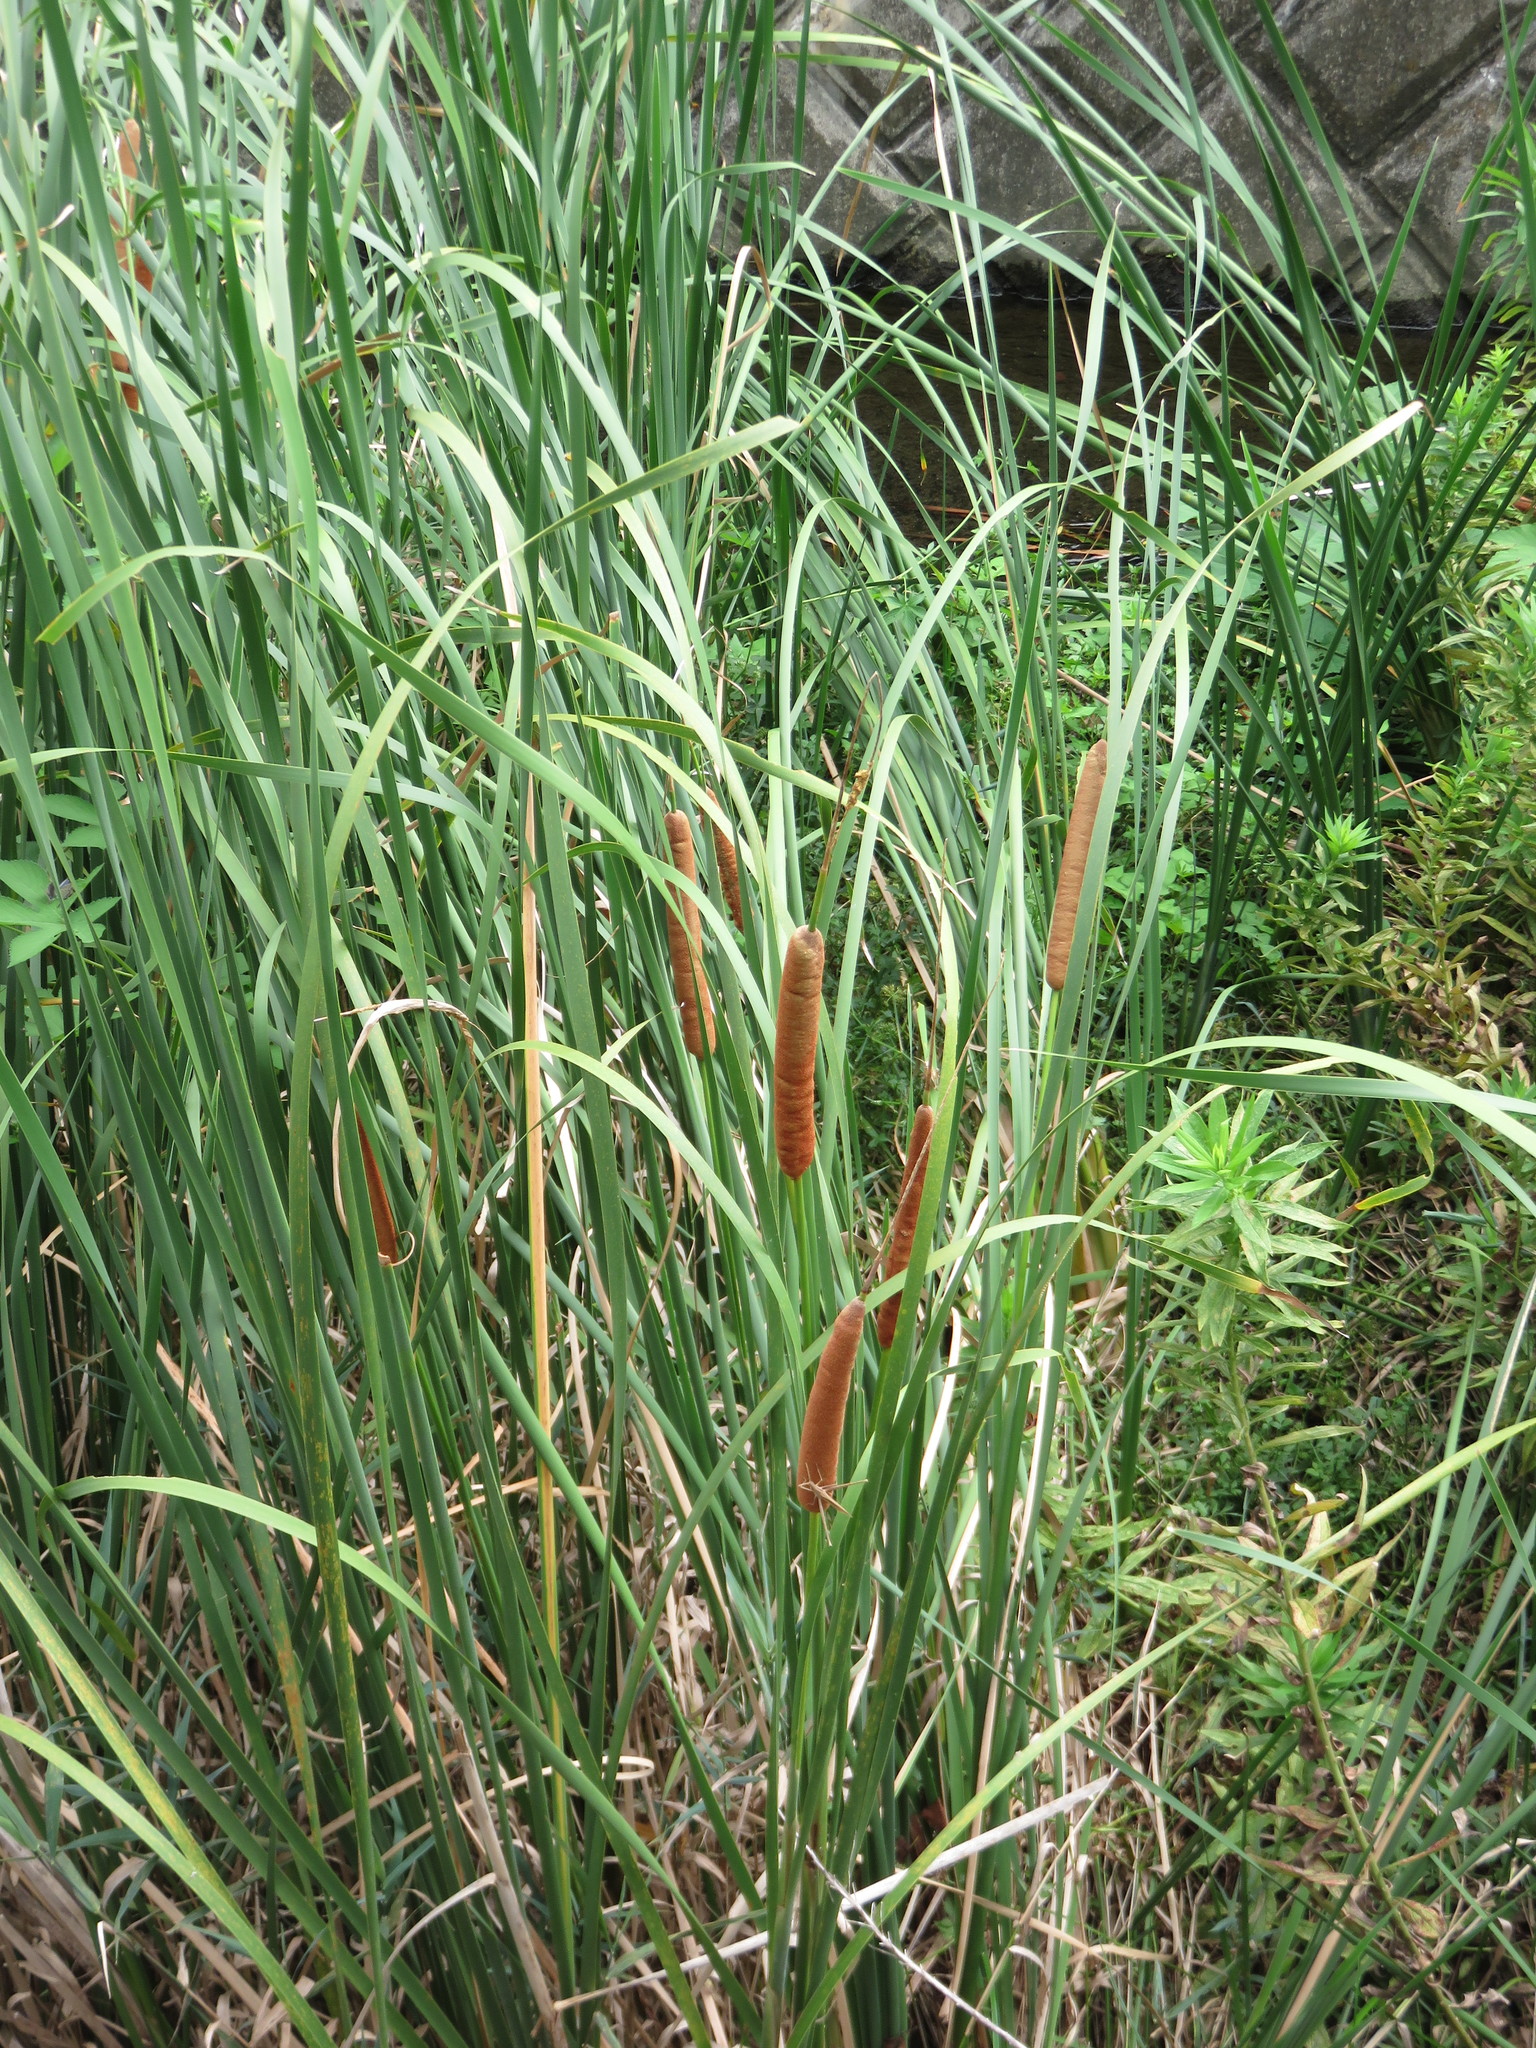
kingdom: Plantae
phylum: Tracheophyta
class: Liliopsida
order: Poales
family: Typhaceae
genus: Typha
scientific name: Typha domingensis
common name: Southern cattail
